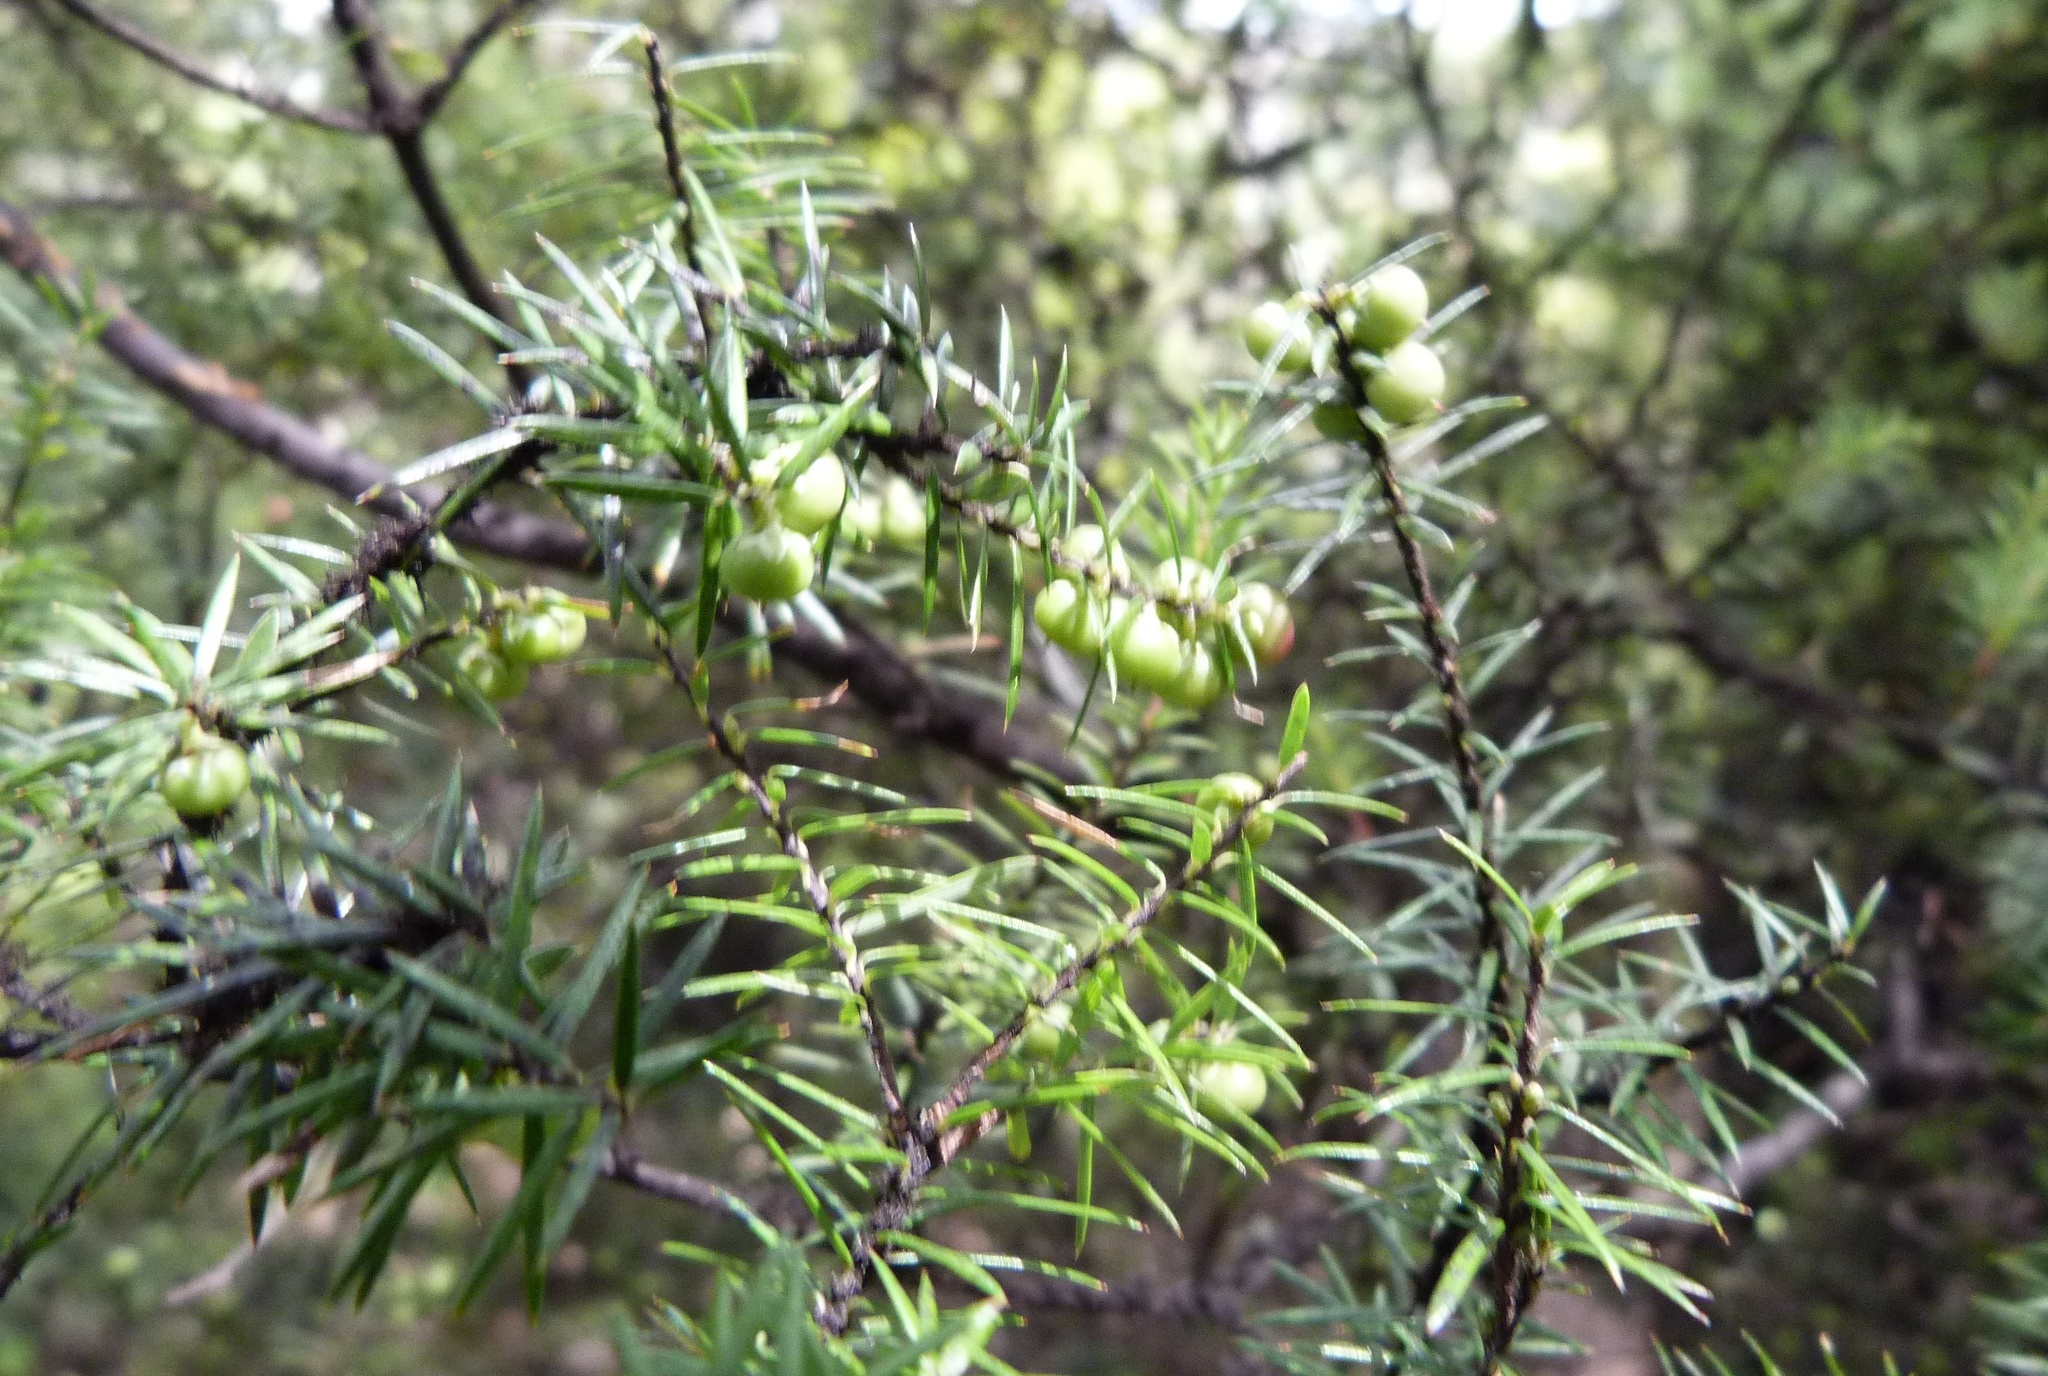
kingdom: Plantae
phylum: Tracheophyta
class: Magnoliopsida
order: Ericales
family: Ericaceae
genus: Leptecophylla
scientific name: Leptecophylla juniperina
